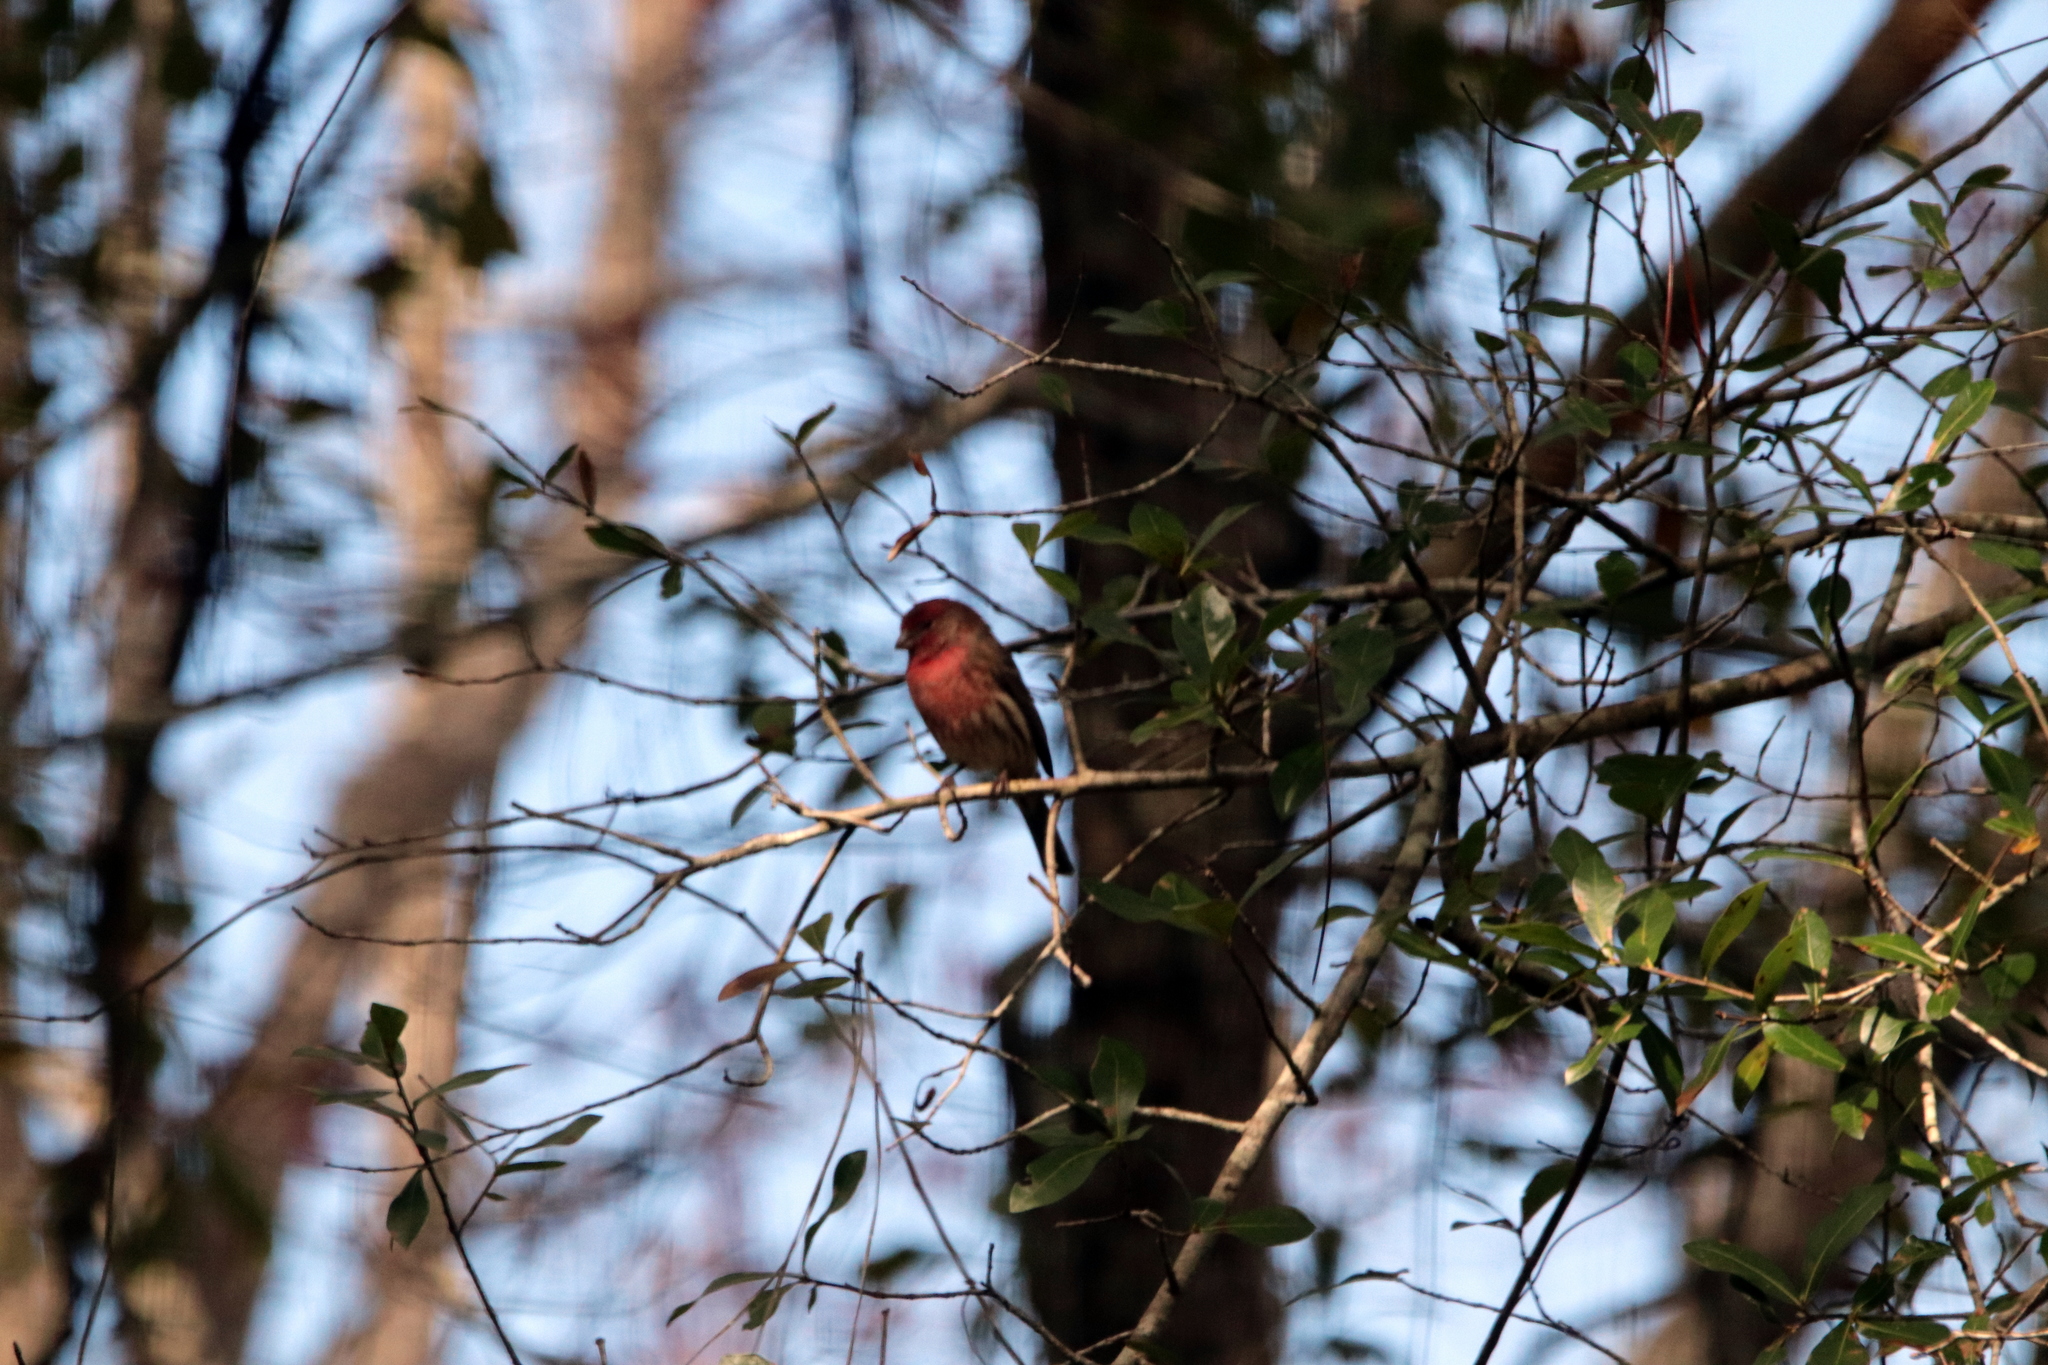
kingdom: Animalia
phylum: Chordata
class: Aves
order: Passeriformes
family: Fringillidae
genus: Haemorhous
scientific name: Haemorhous mexicanus
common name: House finch
